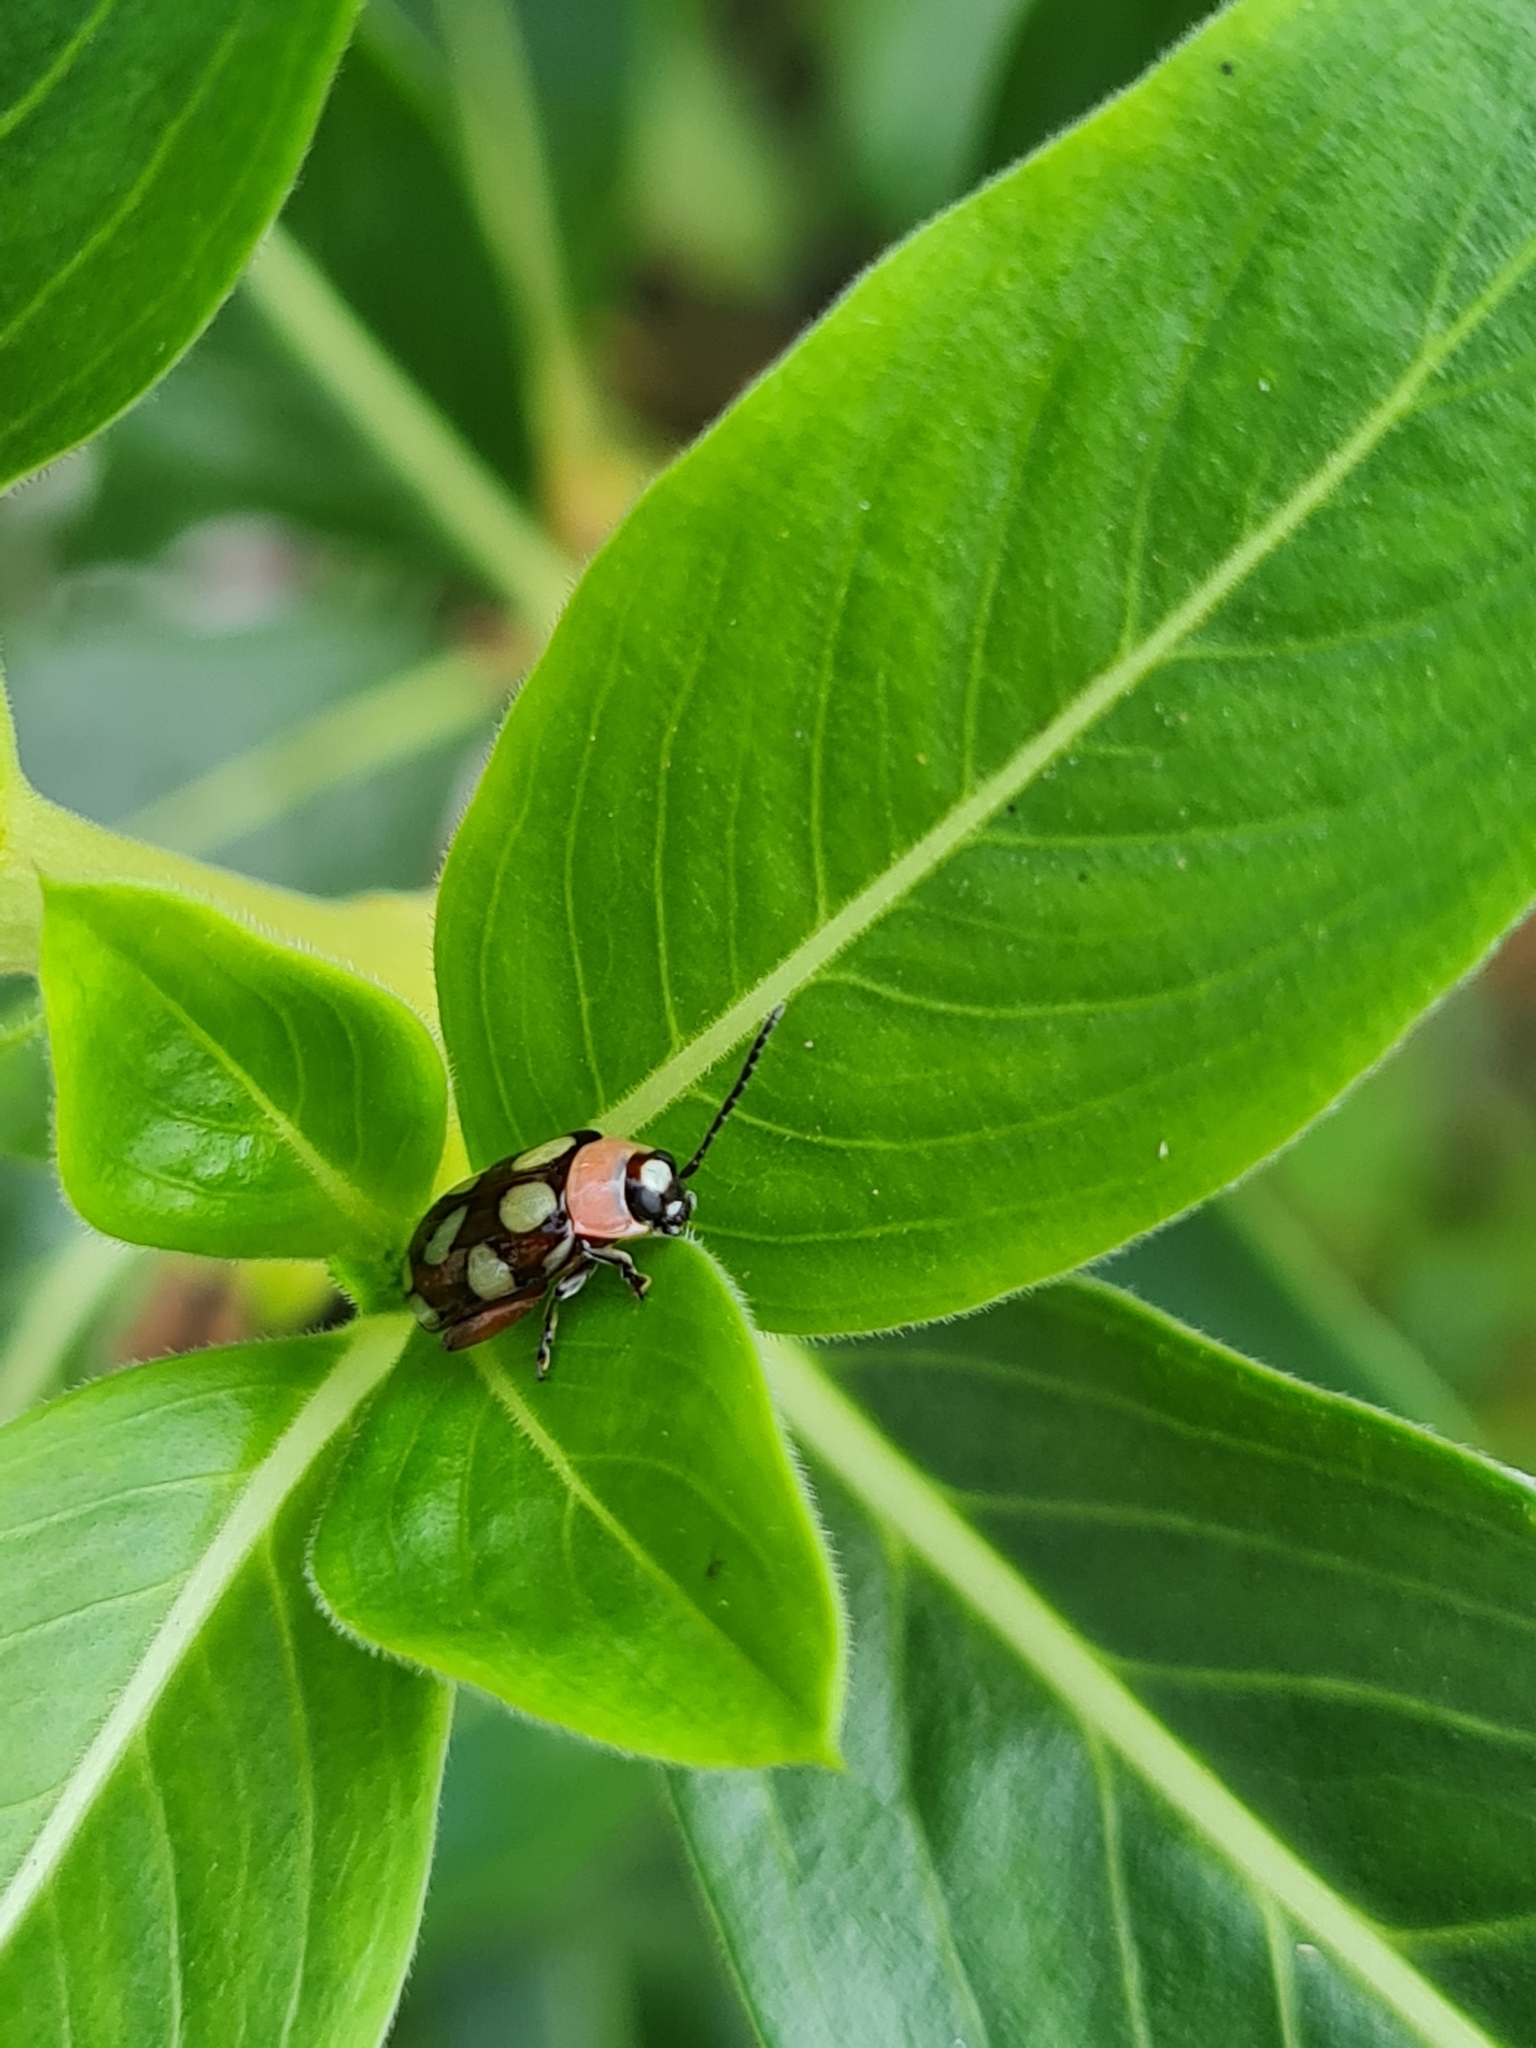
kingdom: Animalia
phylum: Arthropoda
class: Insecta
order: Coleoptera
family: Chrysomelidae
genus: Omophoita
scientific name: Omophoita
